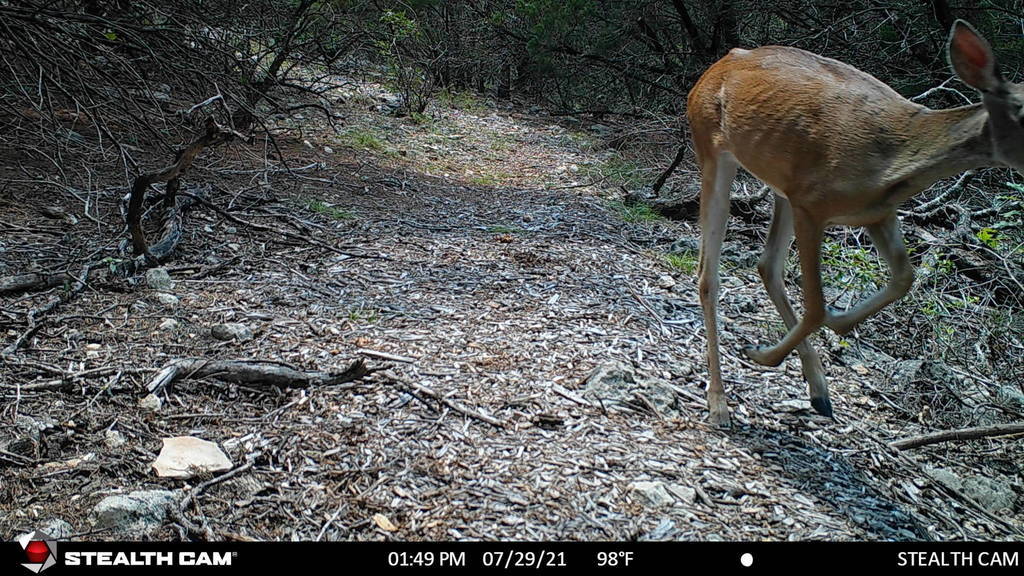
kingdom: Animalia
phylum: Chordata
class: Mammalia
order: Artiodactyla
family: Cervidae
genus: Odocoileus
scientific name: Odocoileus virginianus
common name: White-tailed deer
